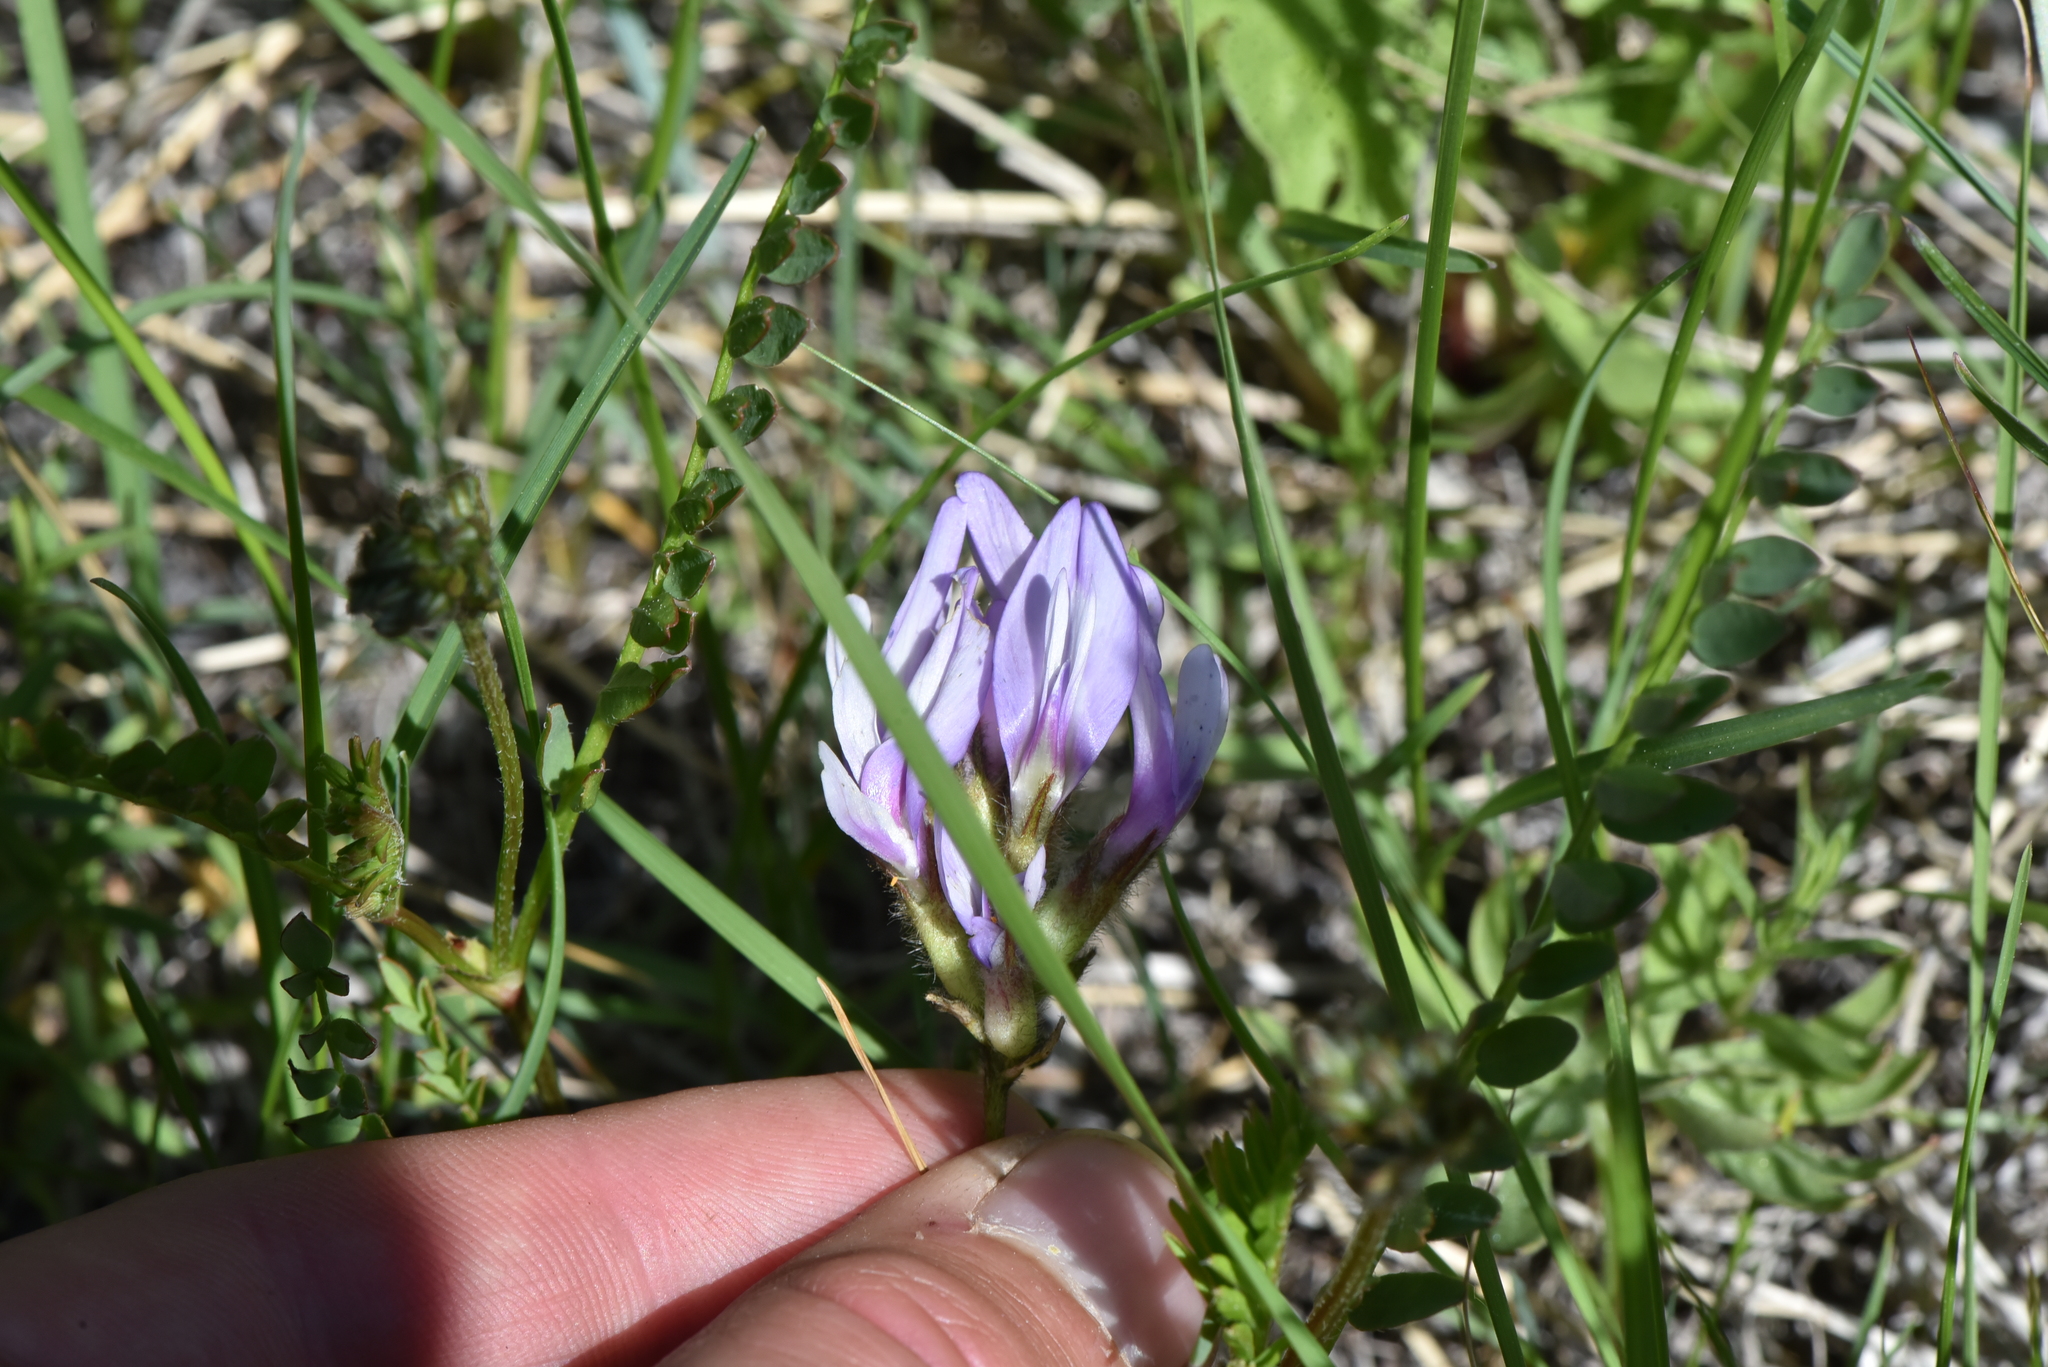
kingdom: Plantae
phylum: Tracheophyta
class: Magnoliopsida
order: Fabales
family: Fabaceae
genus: Astragalus
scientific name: Astragalus agrestis
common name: Field milk-vetch
